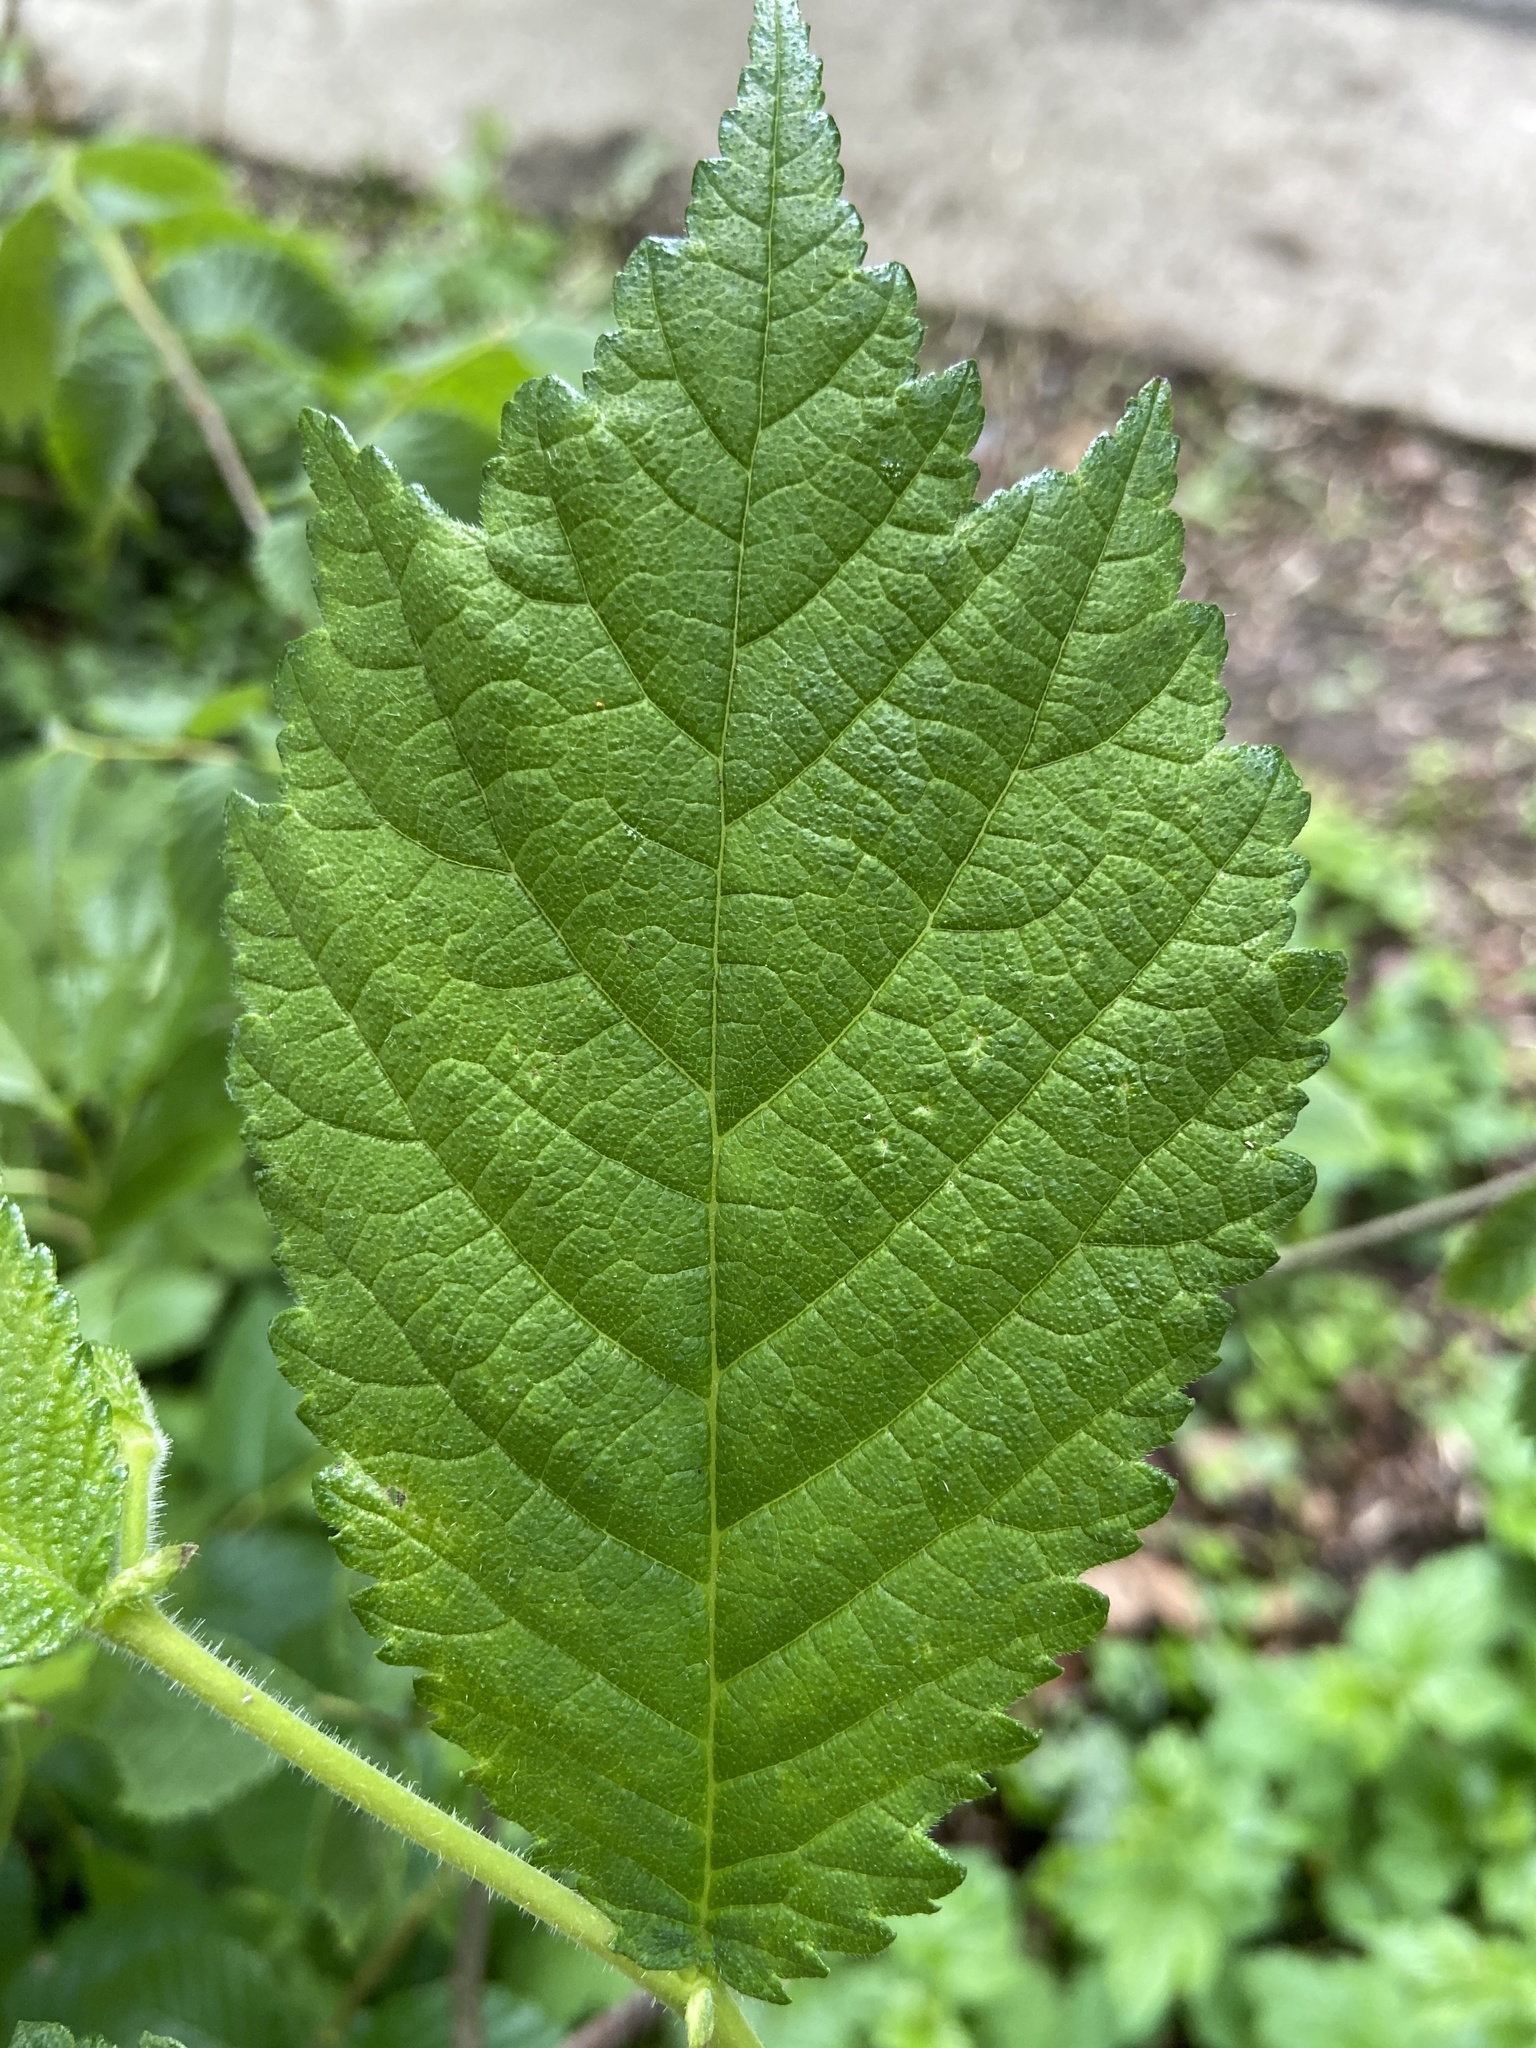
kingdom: Plantae
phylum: Tracheophyta
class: Magnoliopsida
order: Rosales
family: Ulmaceae
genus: Ulmus
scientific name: Ulmus glabra
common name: Wych elm
